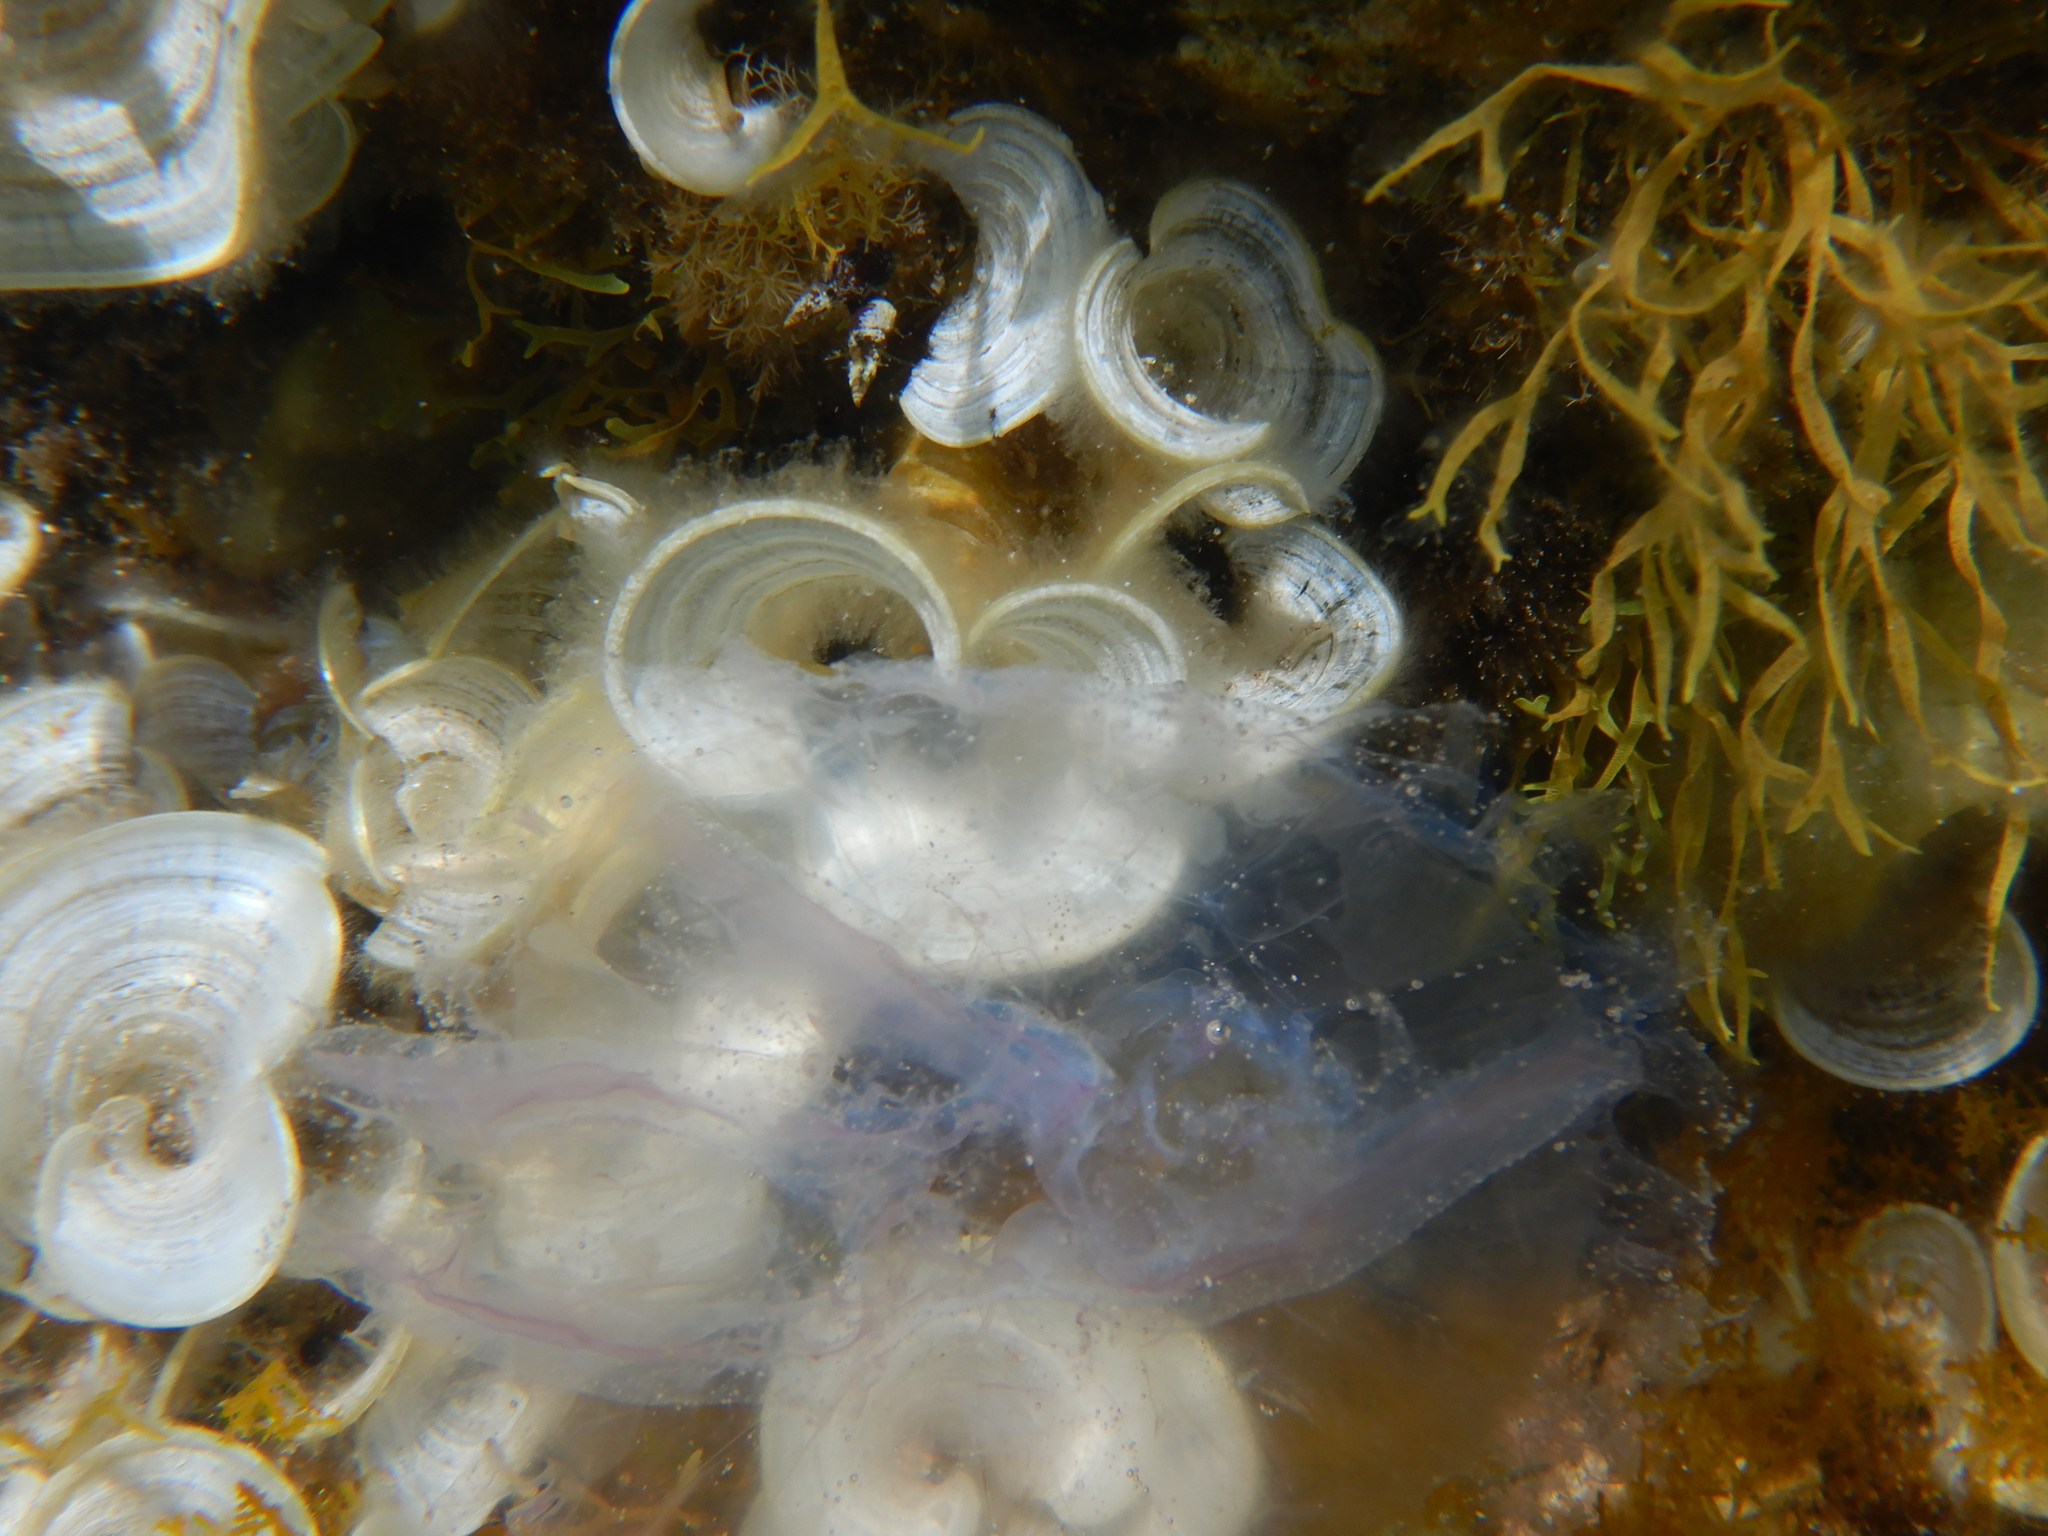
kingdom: Animalia
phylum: Cnidaria
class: Scyphozoa
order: Semaeostomeae
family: Ulmaridae
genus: Aurelia
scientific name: Aurelia solida
